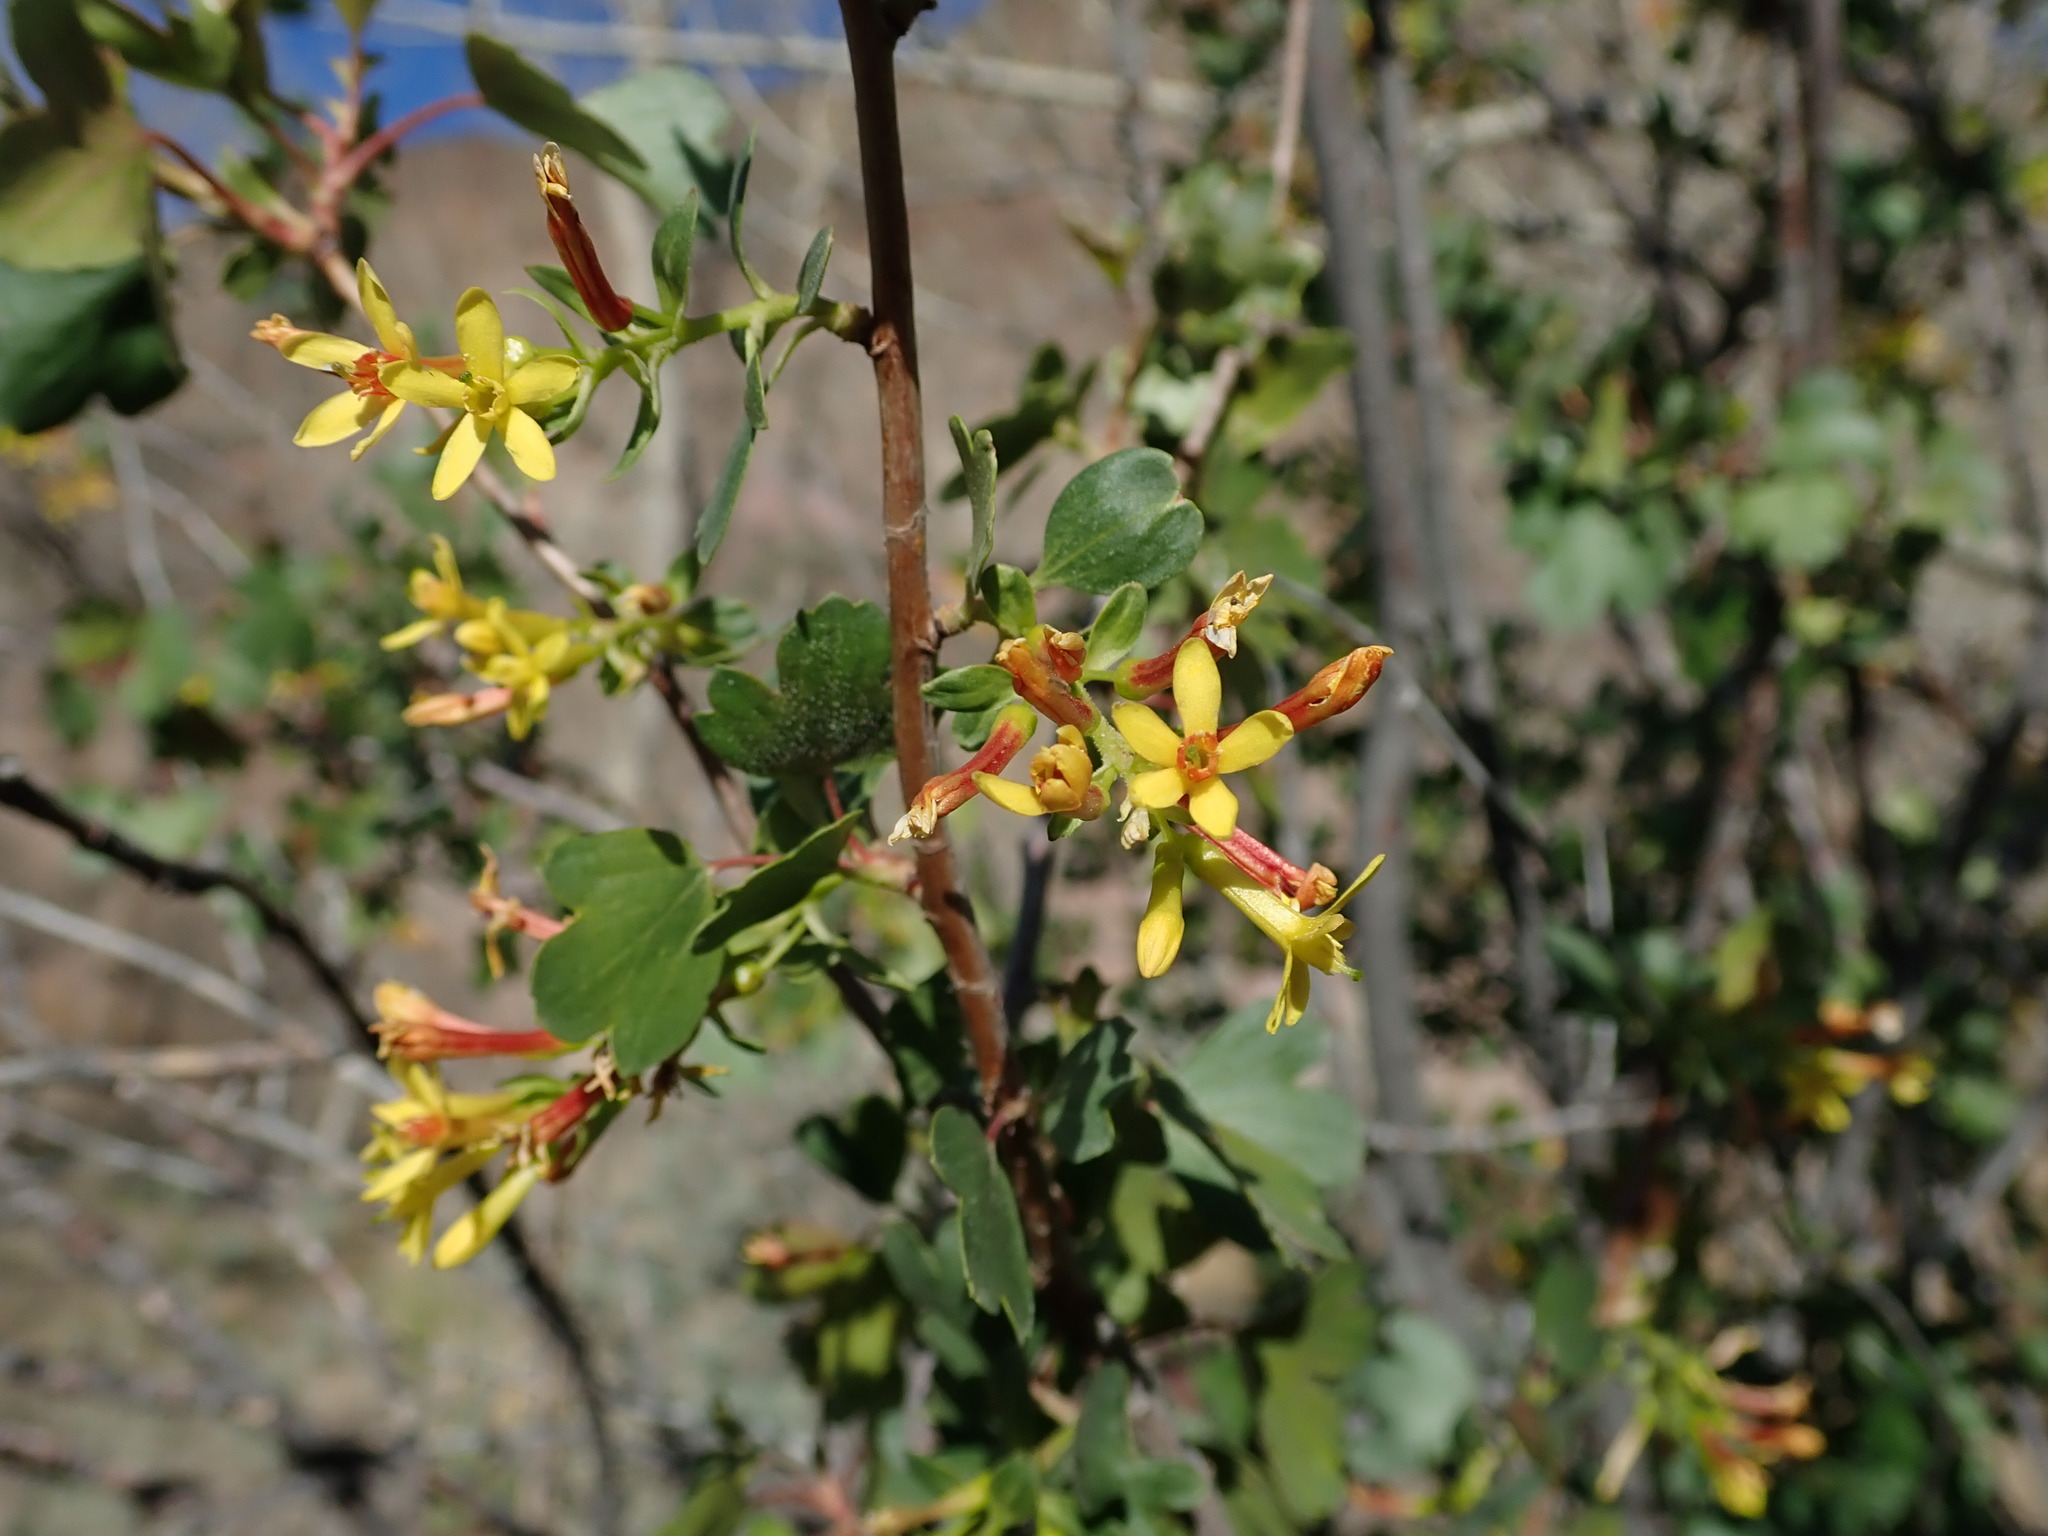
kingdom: Plantae
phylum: Tracheophyta
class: Magnoliopsida
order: Saxifragales
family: Grossulariaceae
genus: Ribes
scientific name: Ribes aureum
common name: Golden currant
